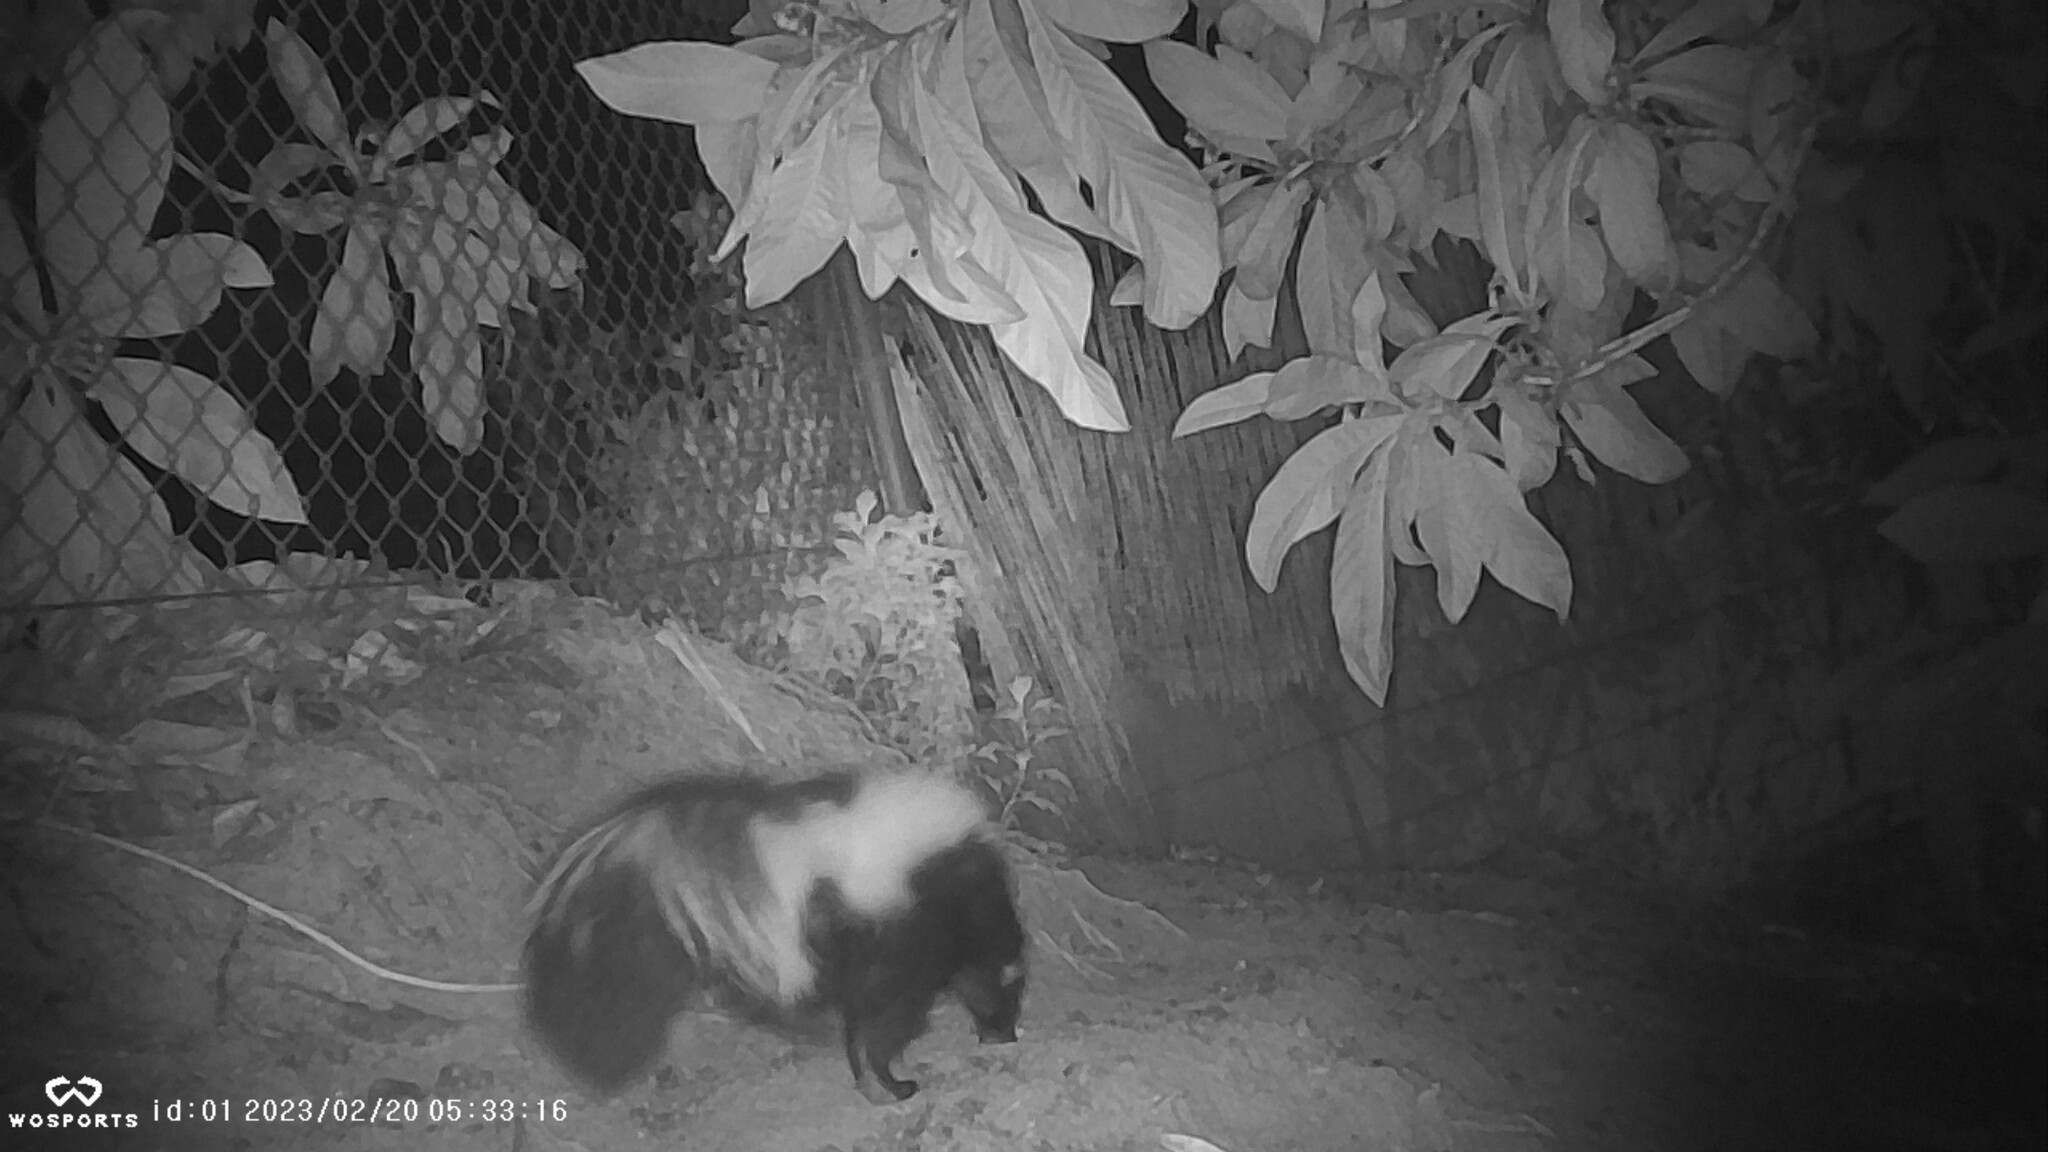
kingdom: Animalia
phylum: Chordata
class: Mammalia
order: Carnivora
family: Mephitidae
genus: Mephitis
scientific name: Mephitis mephitis
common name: Striped skunk
